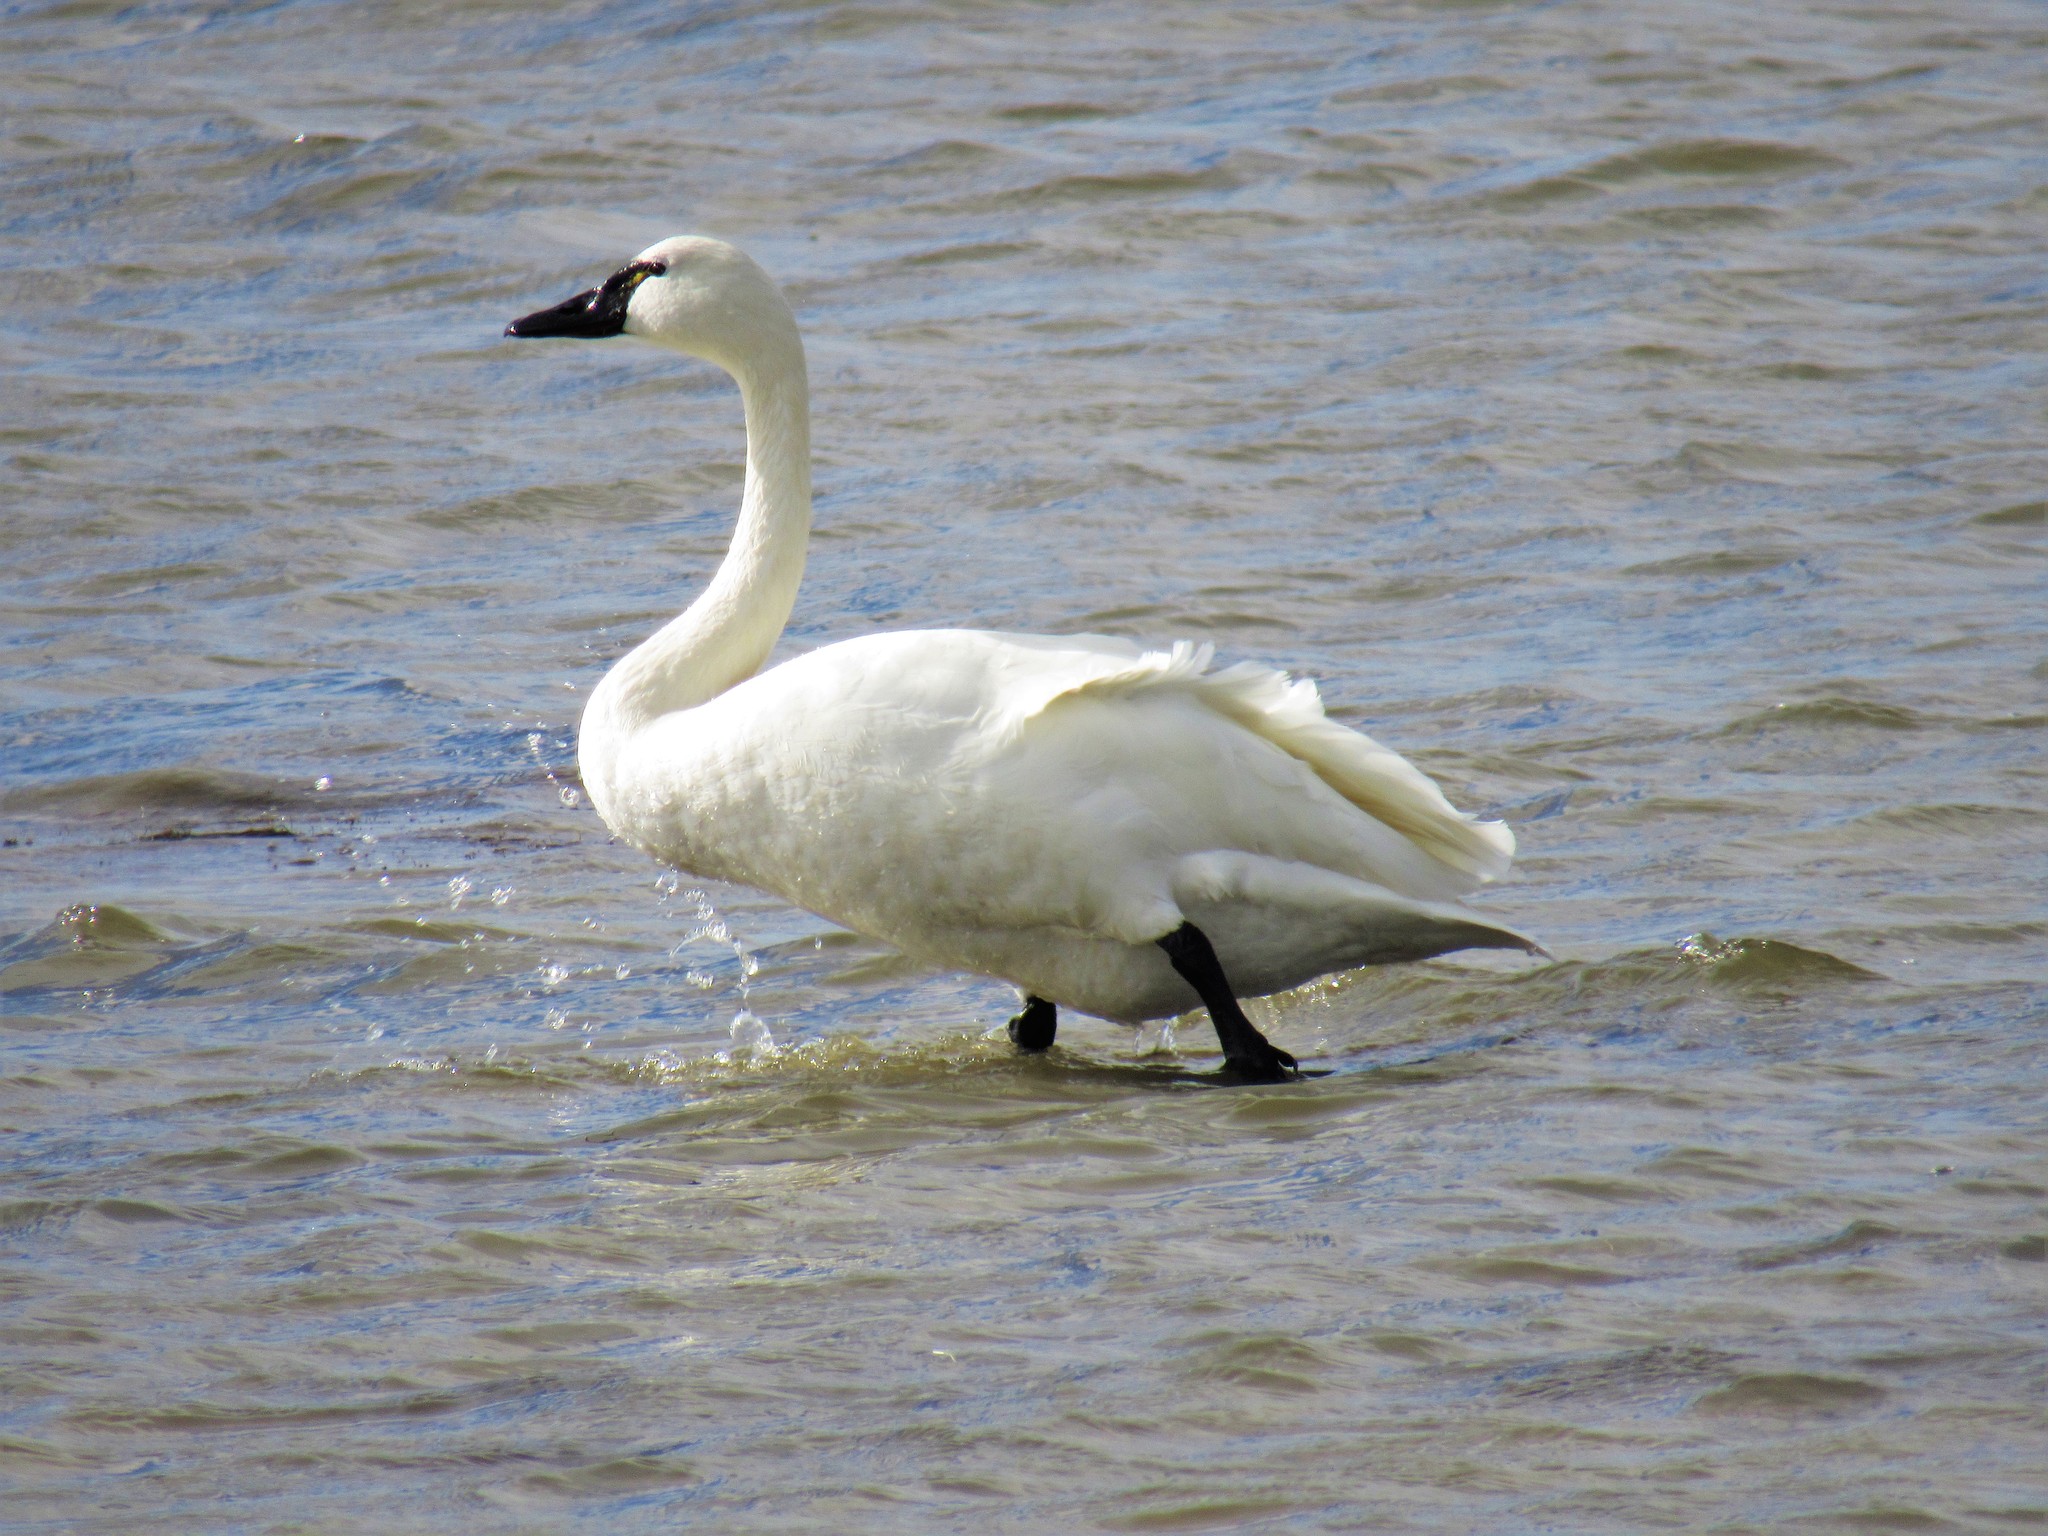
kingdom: Animalia
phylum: Chordata
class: Aves
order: Anseriformes
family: Anatidae
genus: Cygnus
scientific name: Cygnus columbianus
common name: Tundra swan
